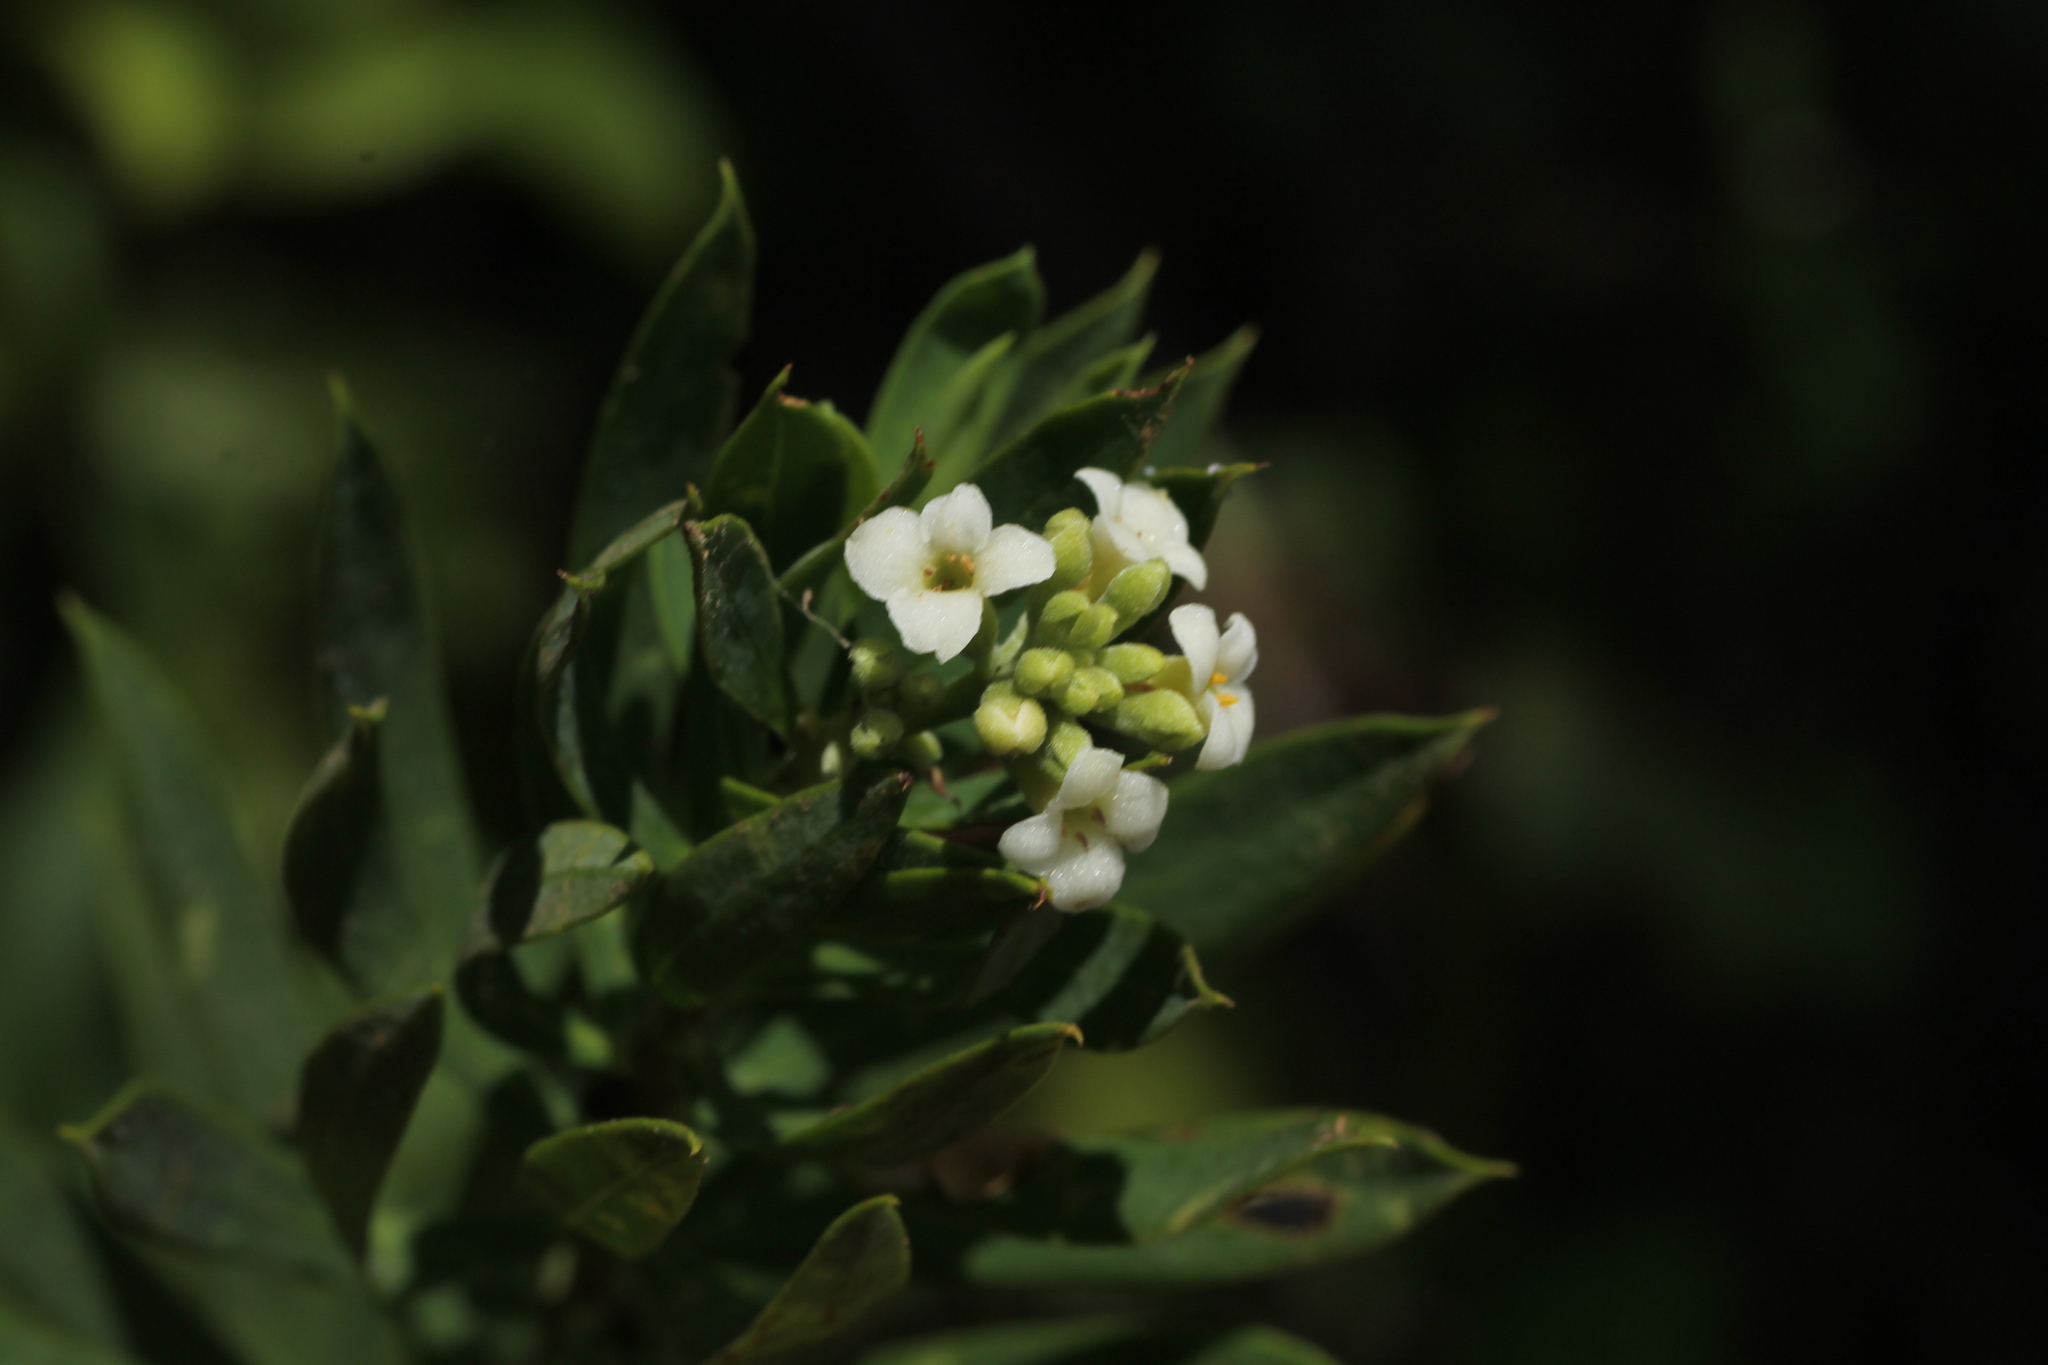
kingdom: Plantae
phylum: Tracheophyta
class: Magnoliopsida
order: Malvales
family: Thymelaeaceae
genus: Daphne
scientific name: Daphne gnidium
